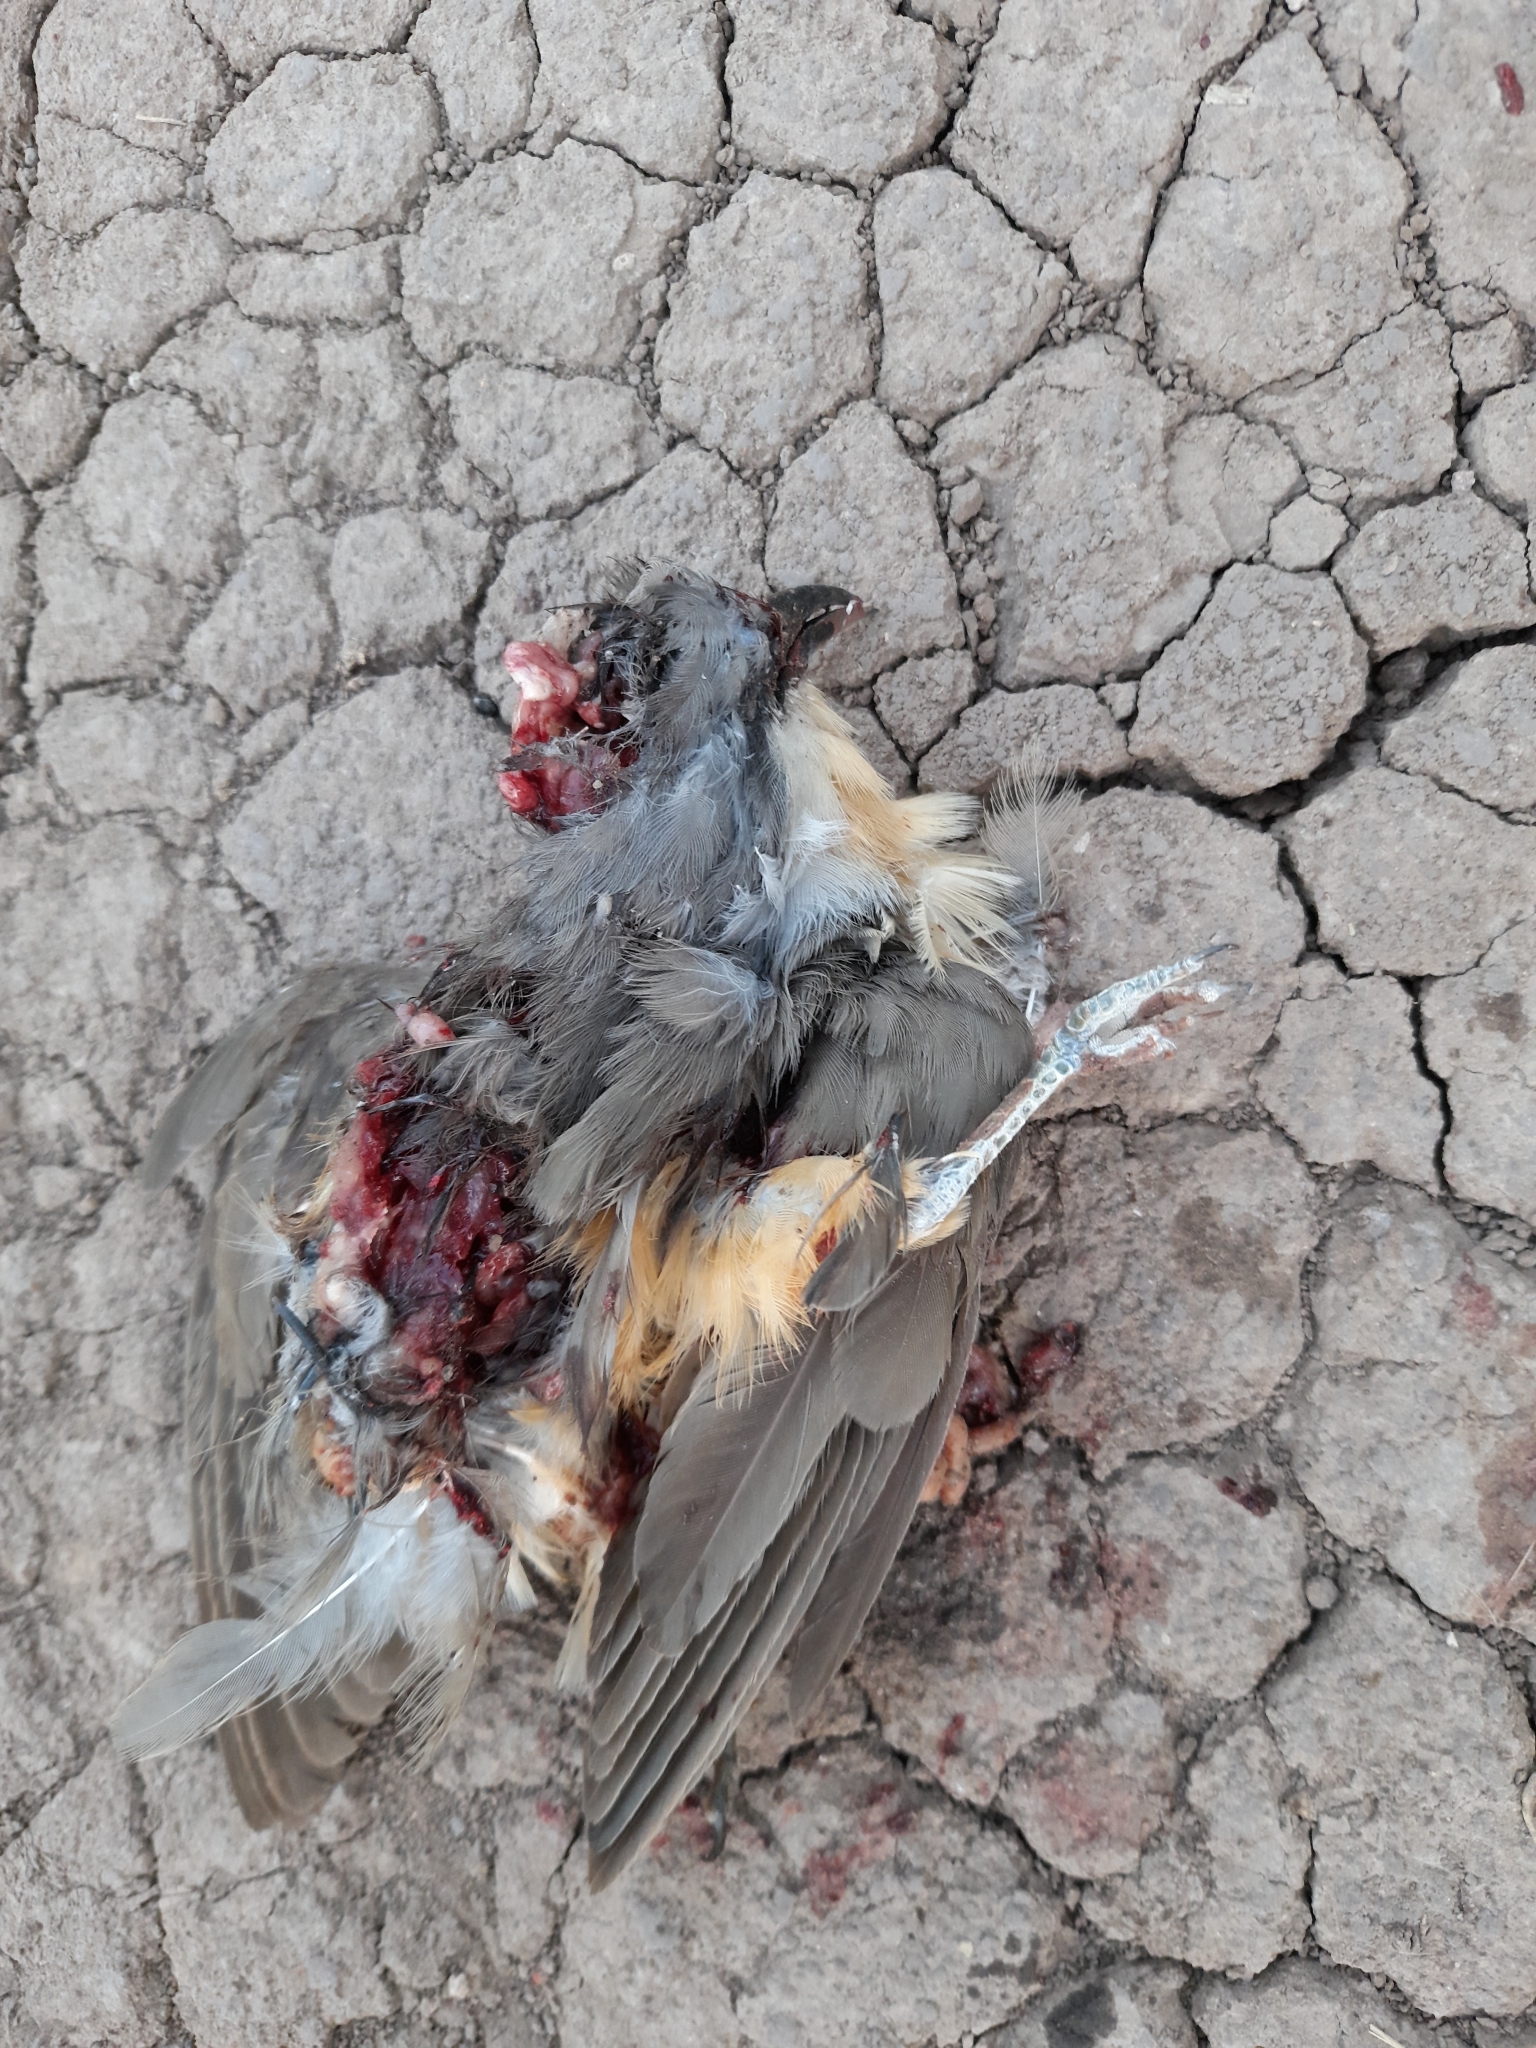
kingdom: Animalia
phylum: Chordata
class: Aves
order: Cuculiformes
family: Cuculidae
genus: Coccyzus
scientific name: Coccyzus melacoryphus
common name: Dark-billed cuckoo
